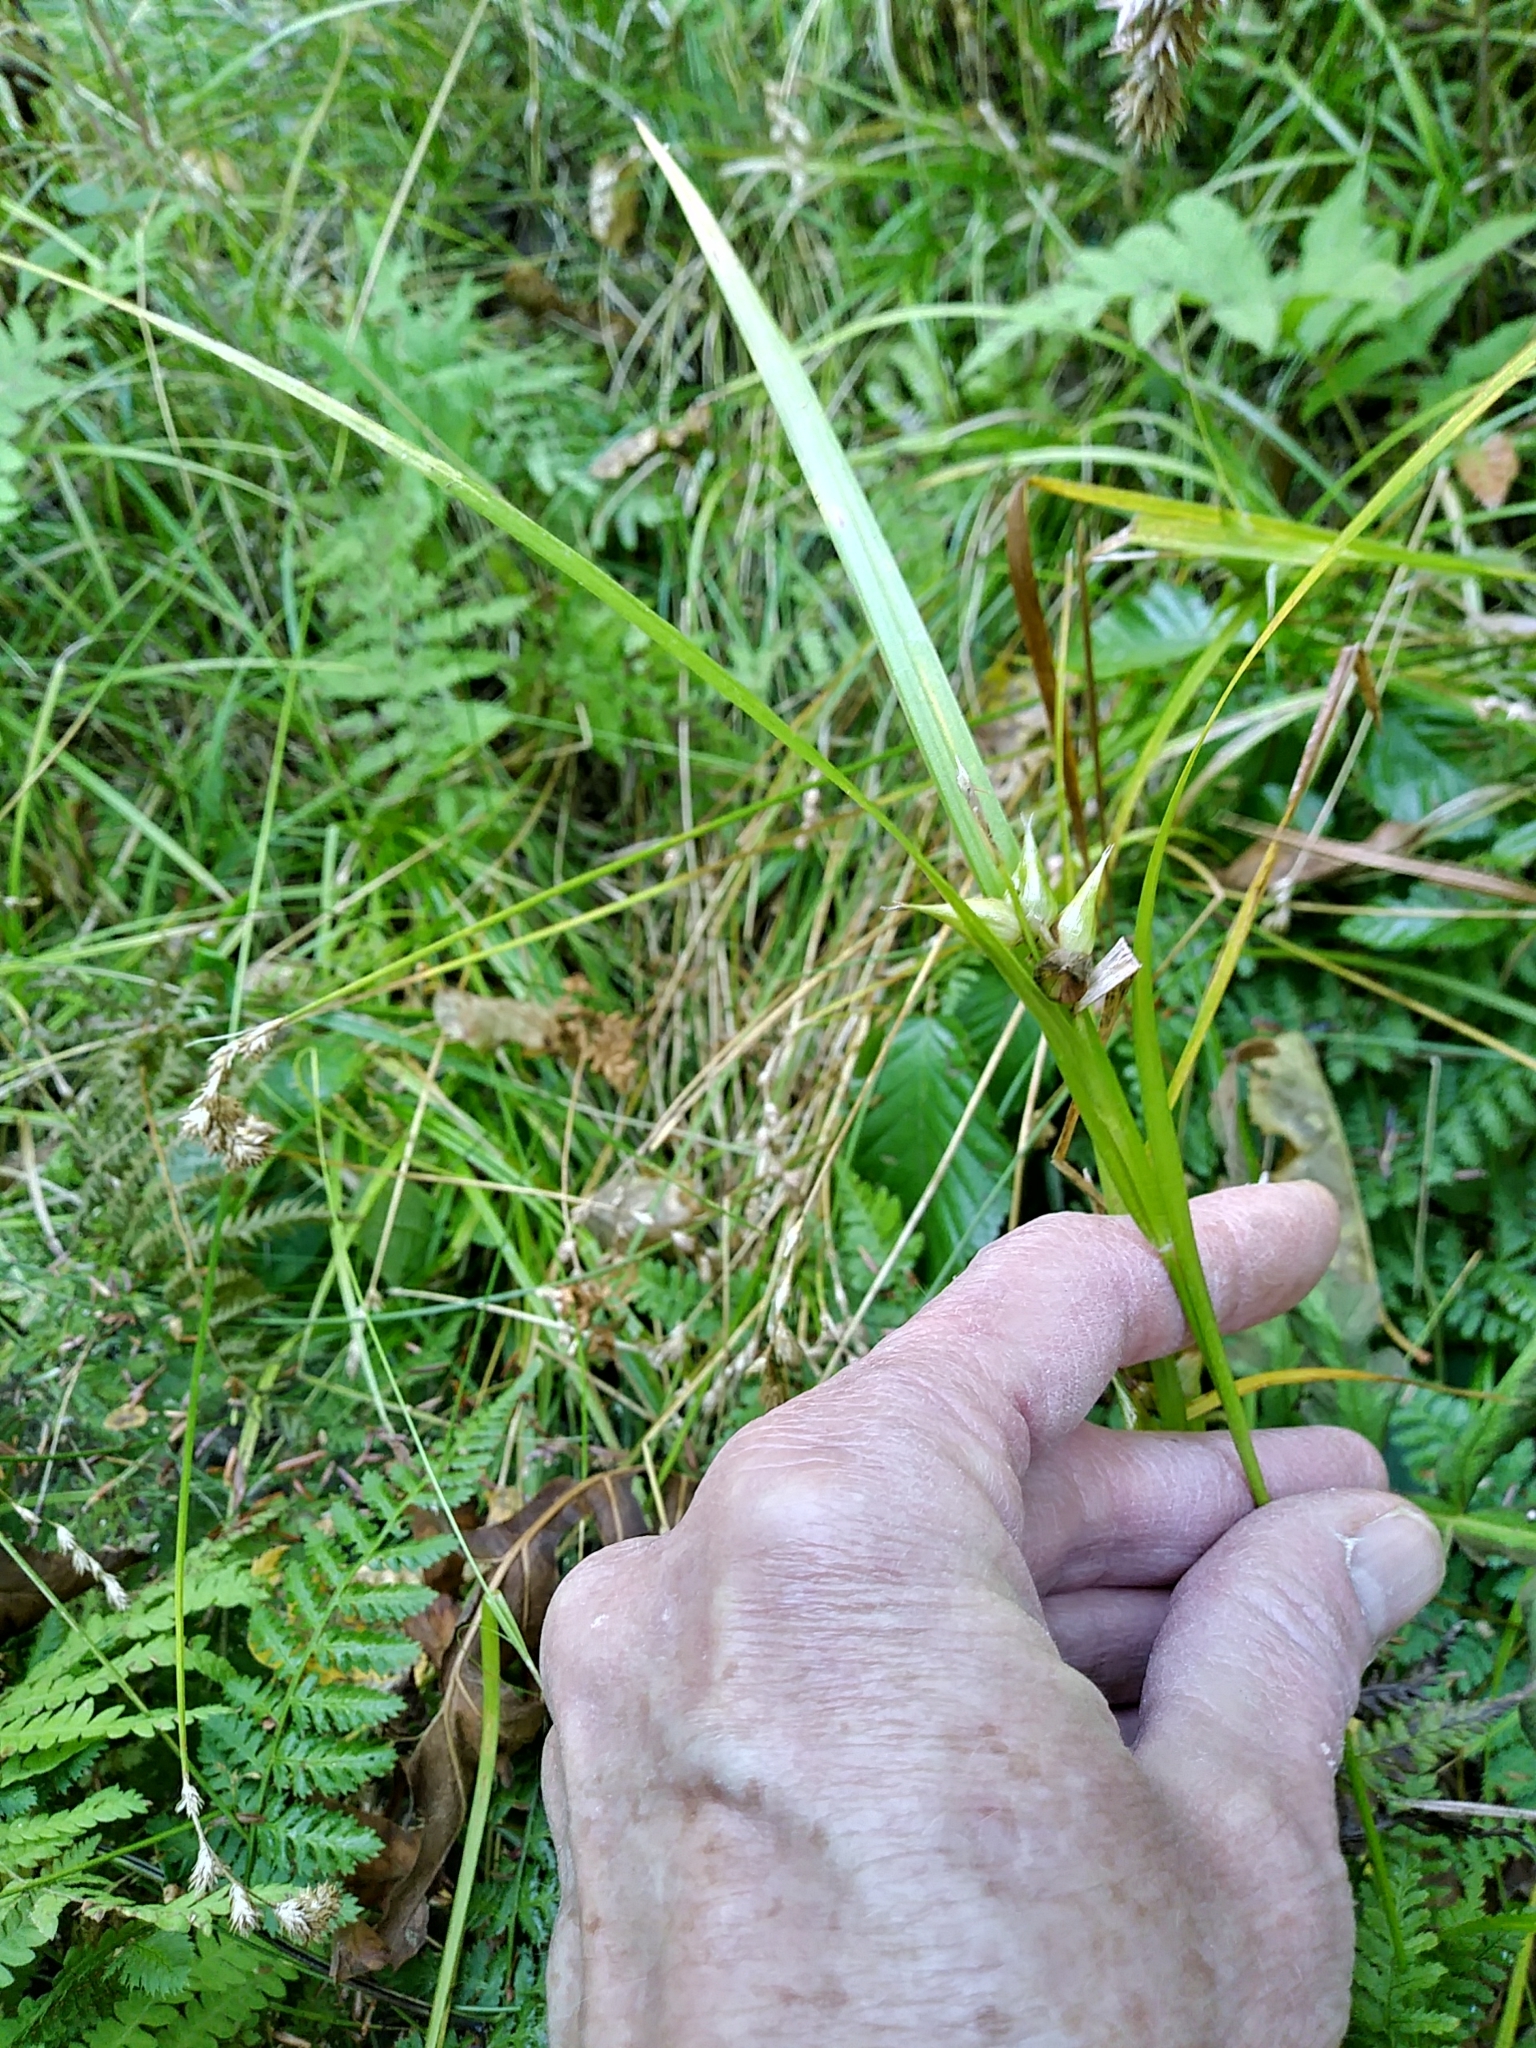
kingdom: Plantae
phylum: Tracheophyta
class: Liliopsida
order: Poales
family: Cyperaceae
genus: Carex
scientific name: Carex intumescens
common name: Greater bladder sedge
